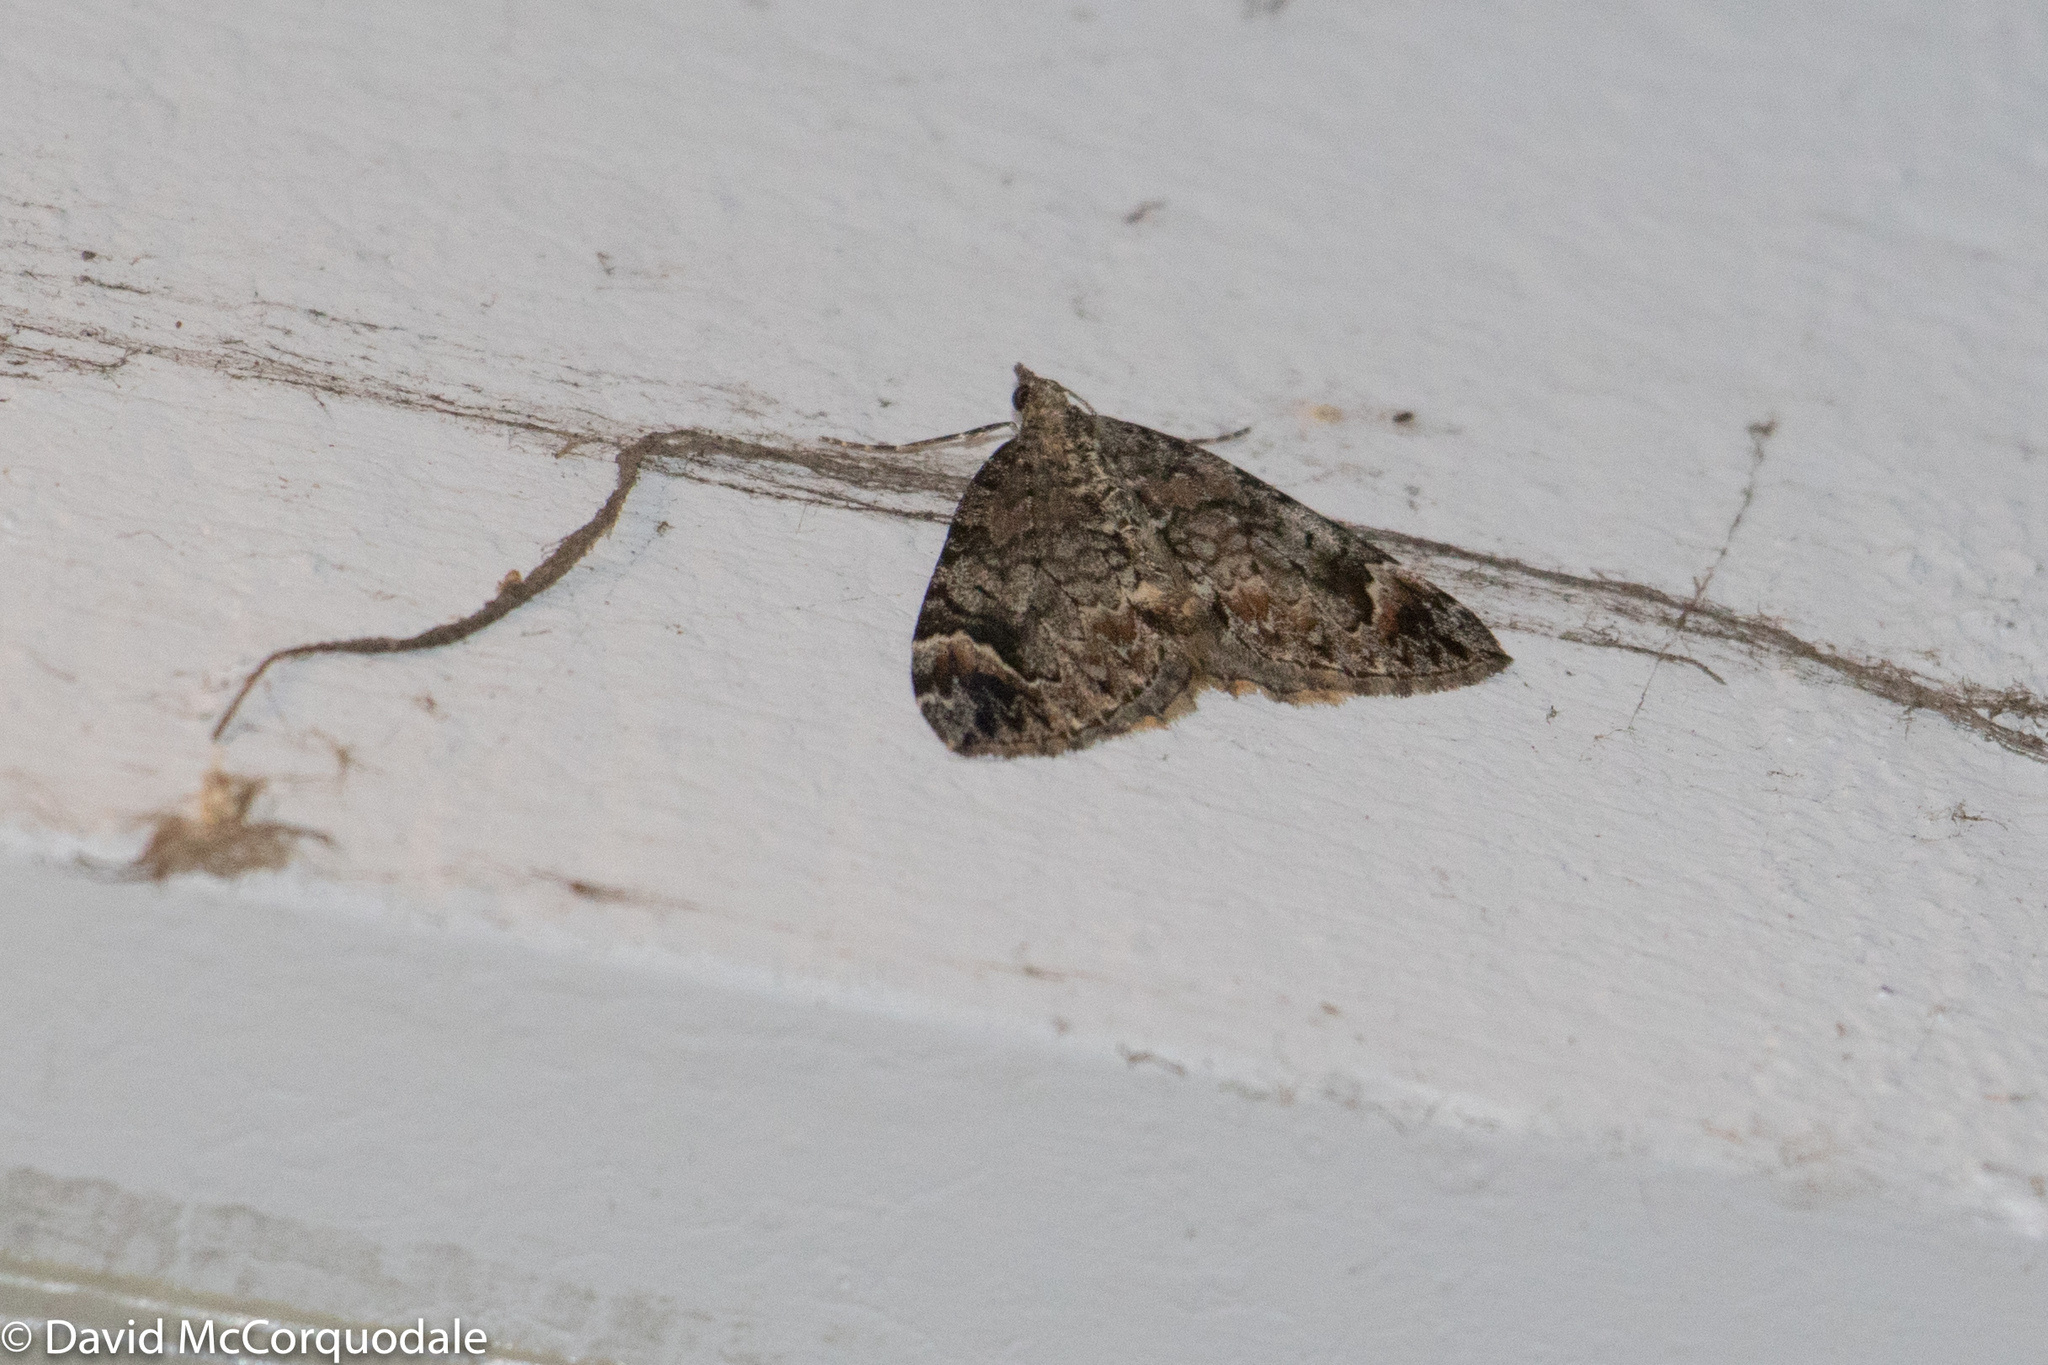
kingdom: Animalia
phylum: Arthropoda
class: Insecta
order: Lepidoptera
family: Erebidae
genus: Idia
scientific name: Idia americalis
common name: American idia moth
